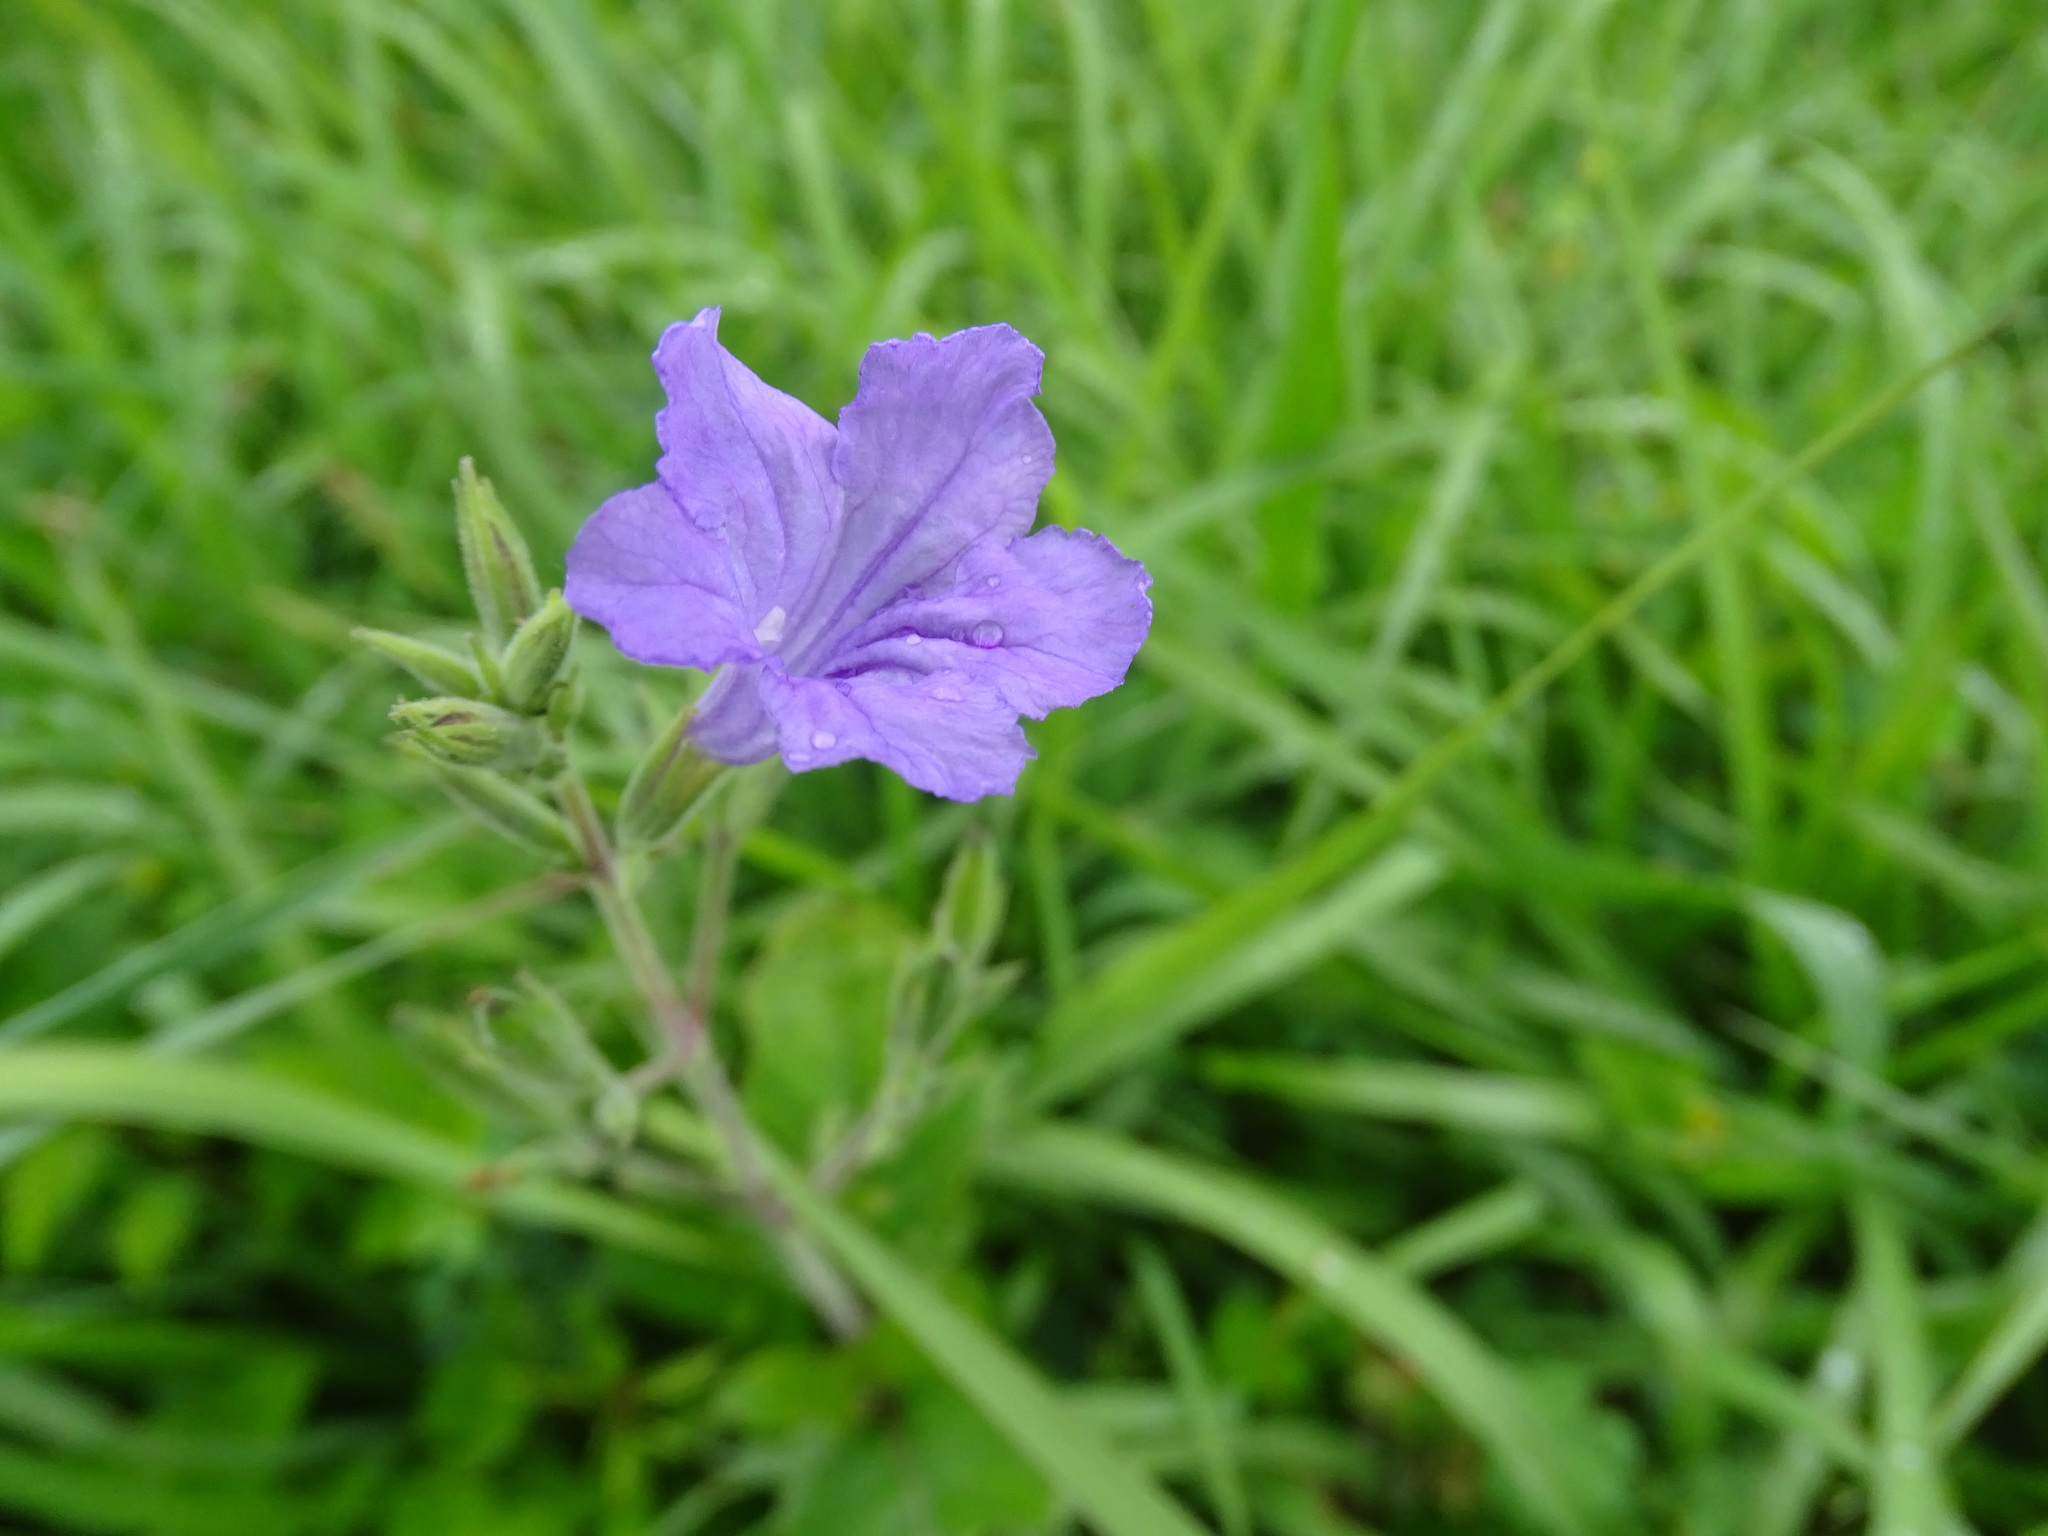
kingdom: Plantae
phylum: Tracheophyta
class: Magnoliopsida
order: Lamiales
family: Acanthaceae
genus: Ruellia
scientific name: Ruellia ciliatiflora
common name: Hairyflower wild petunia
